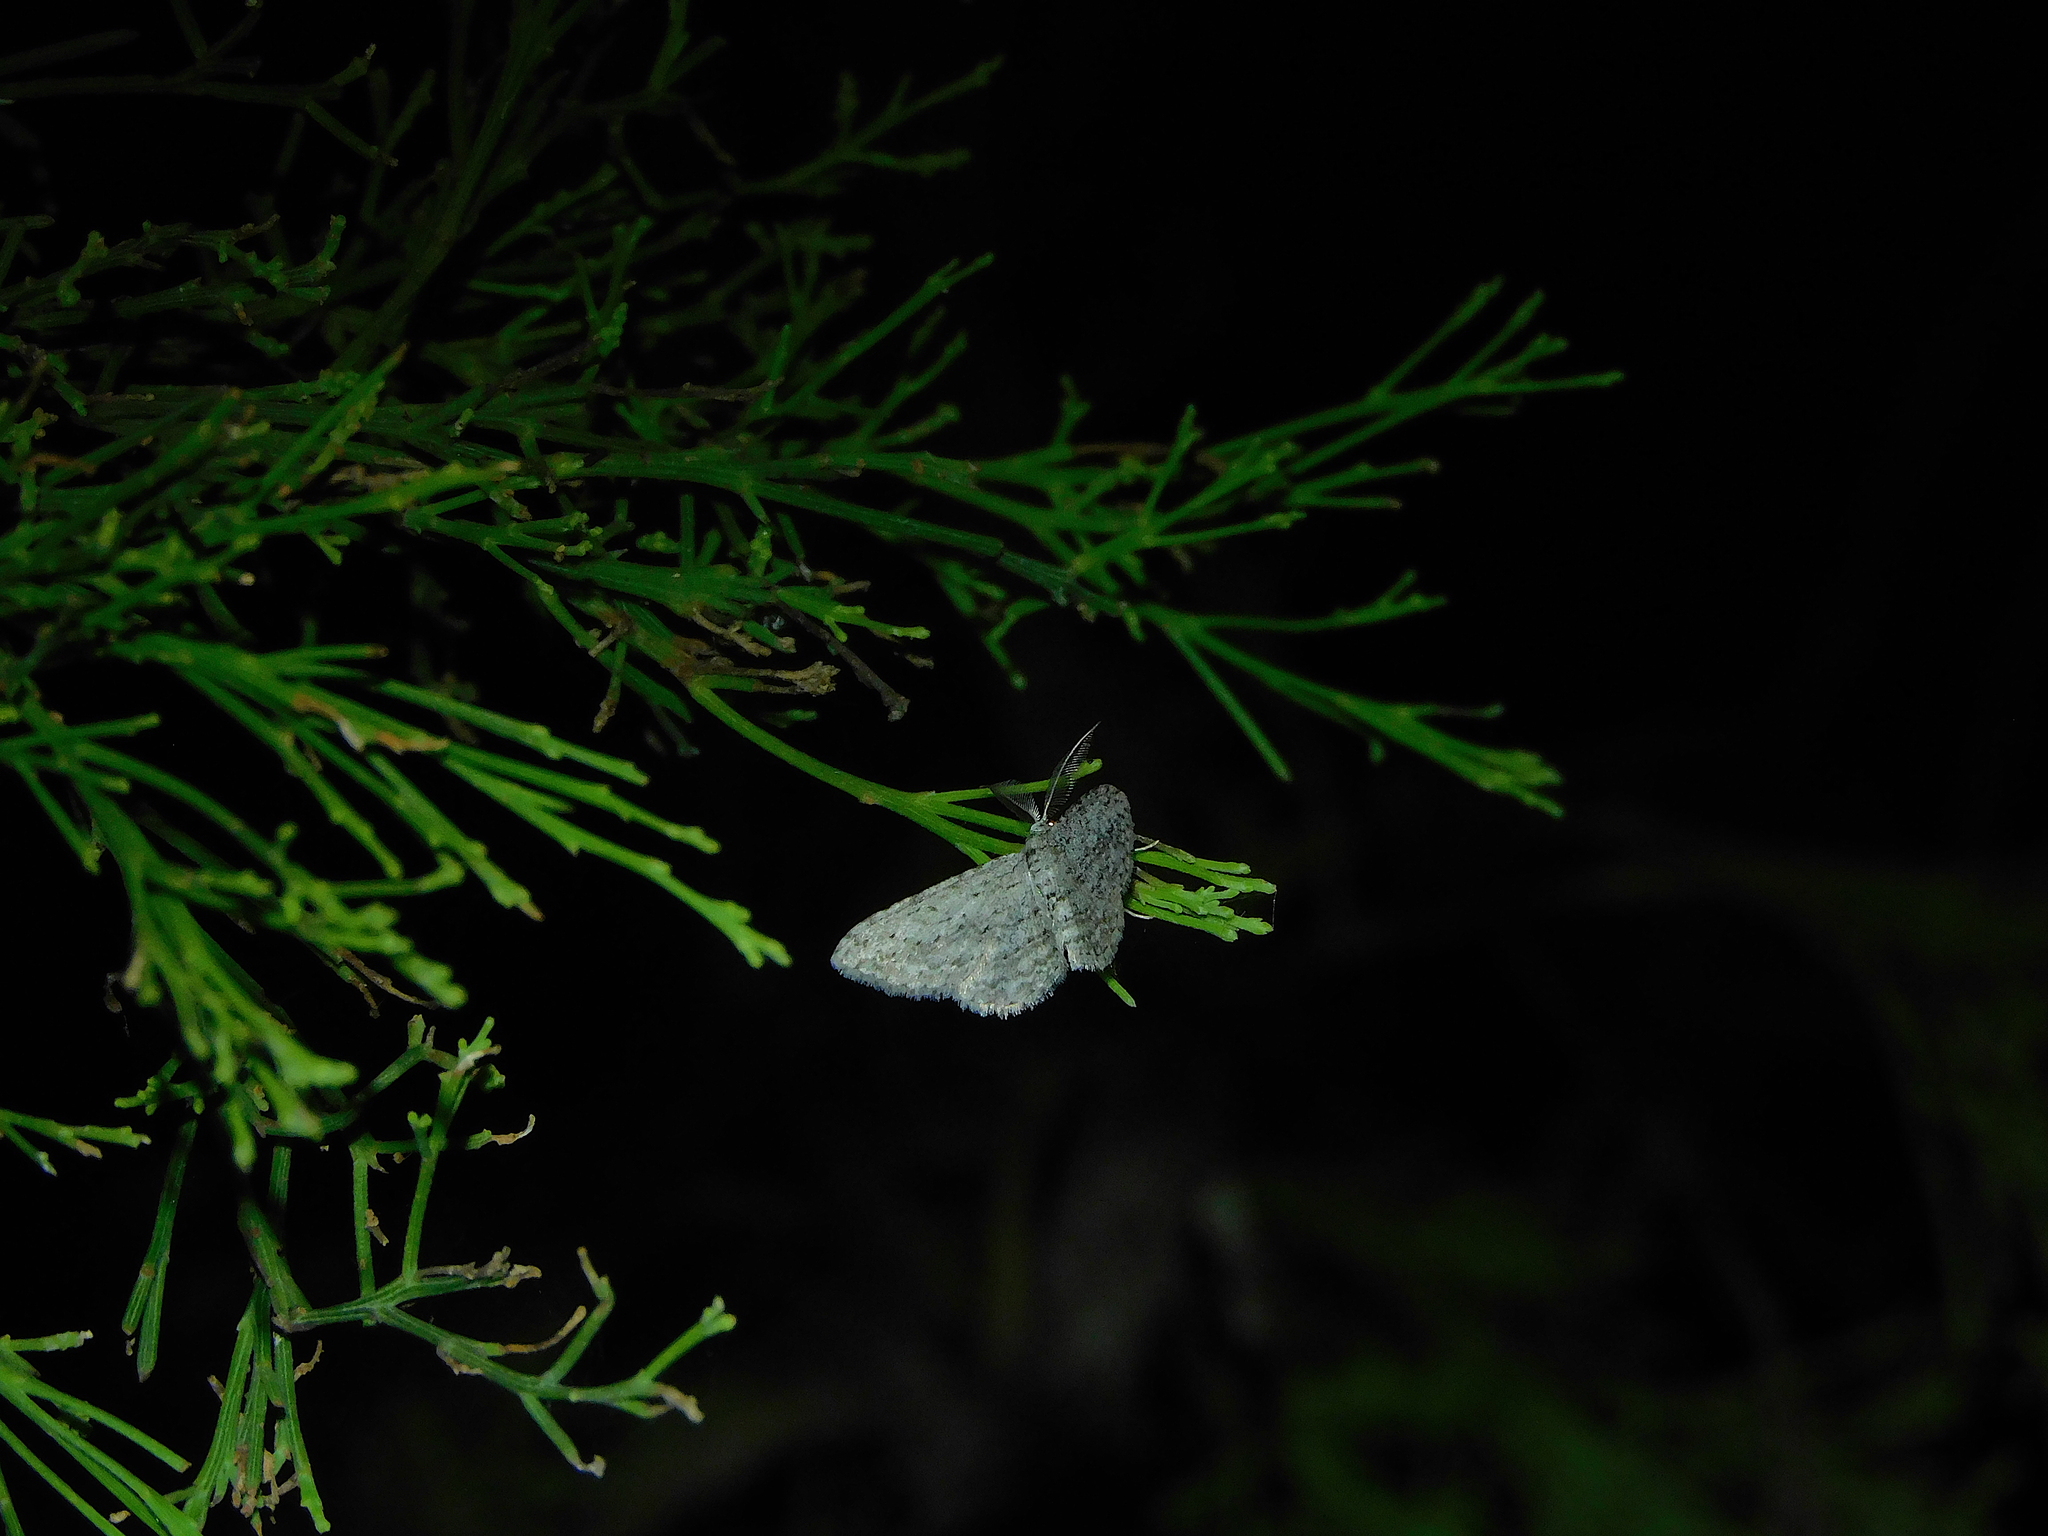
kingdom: Animalia
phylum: Arthropoda
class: Insecta
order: Lepidoptera
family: Geometridae
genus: Phelotis
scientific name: Phelotis cognata
